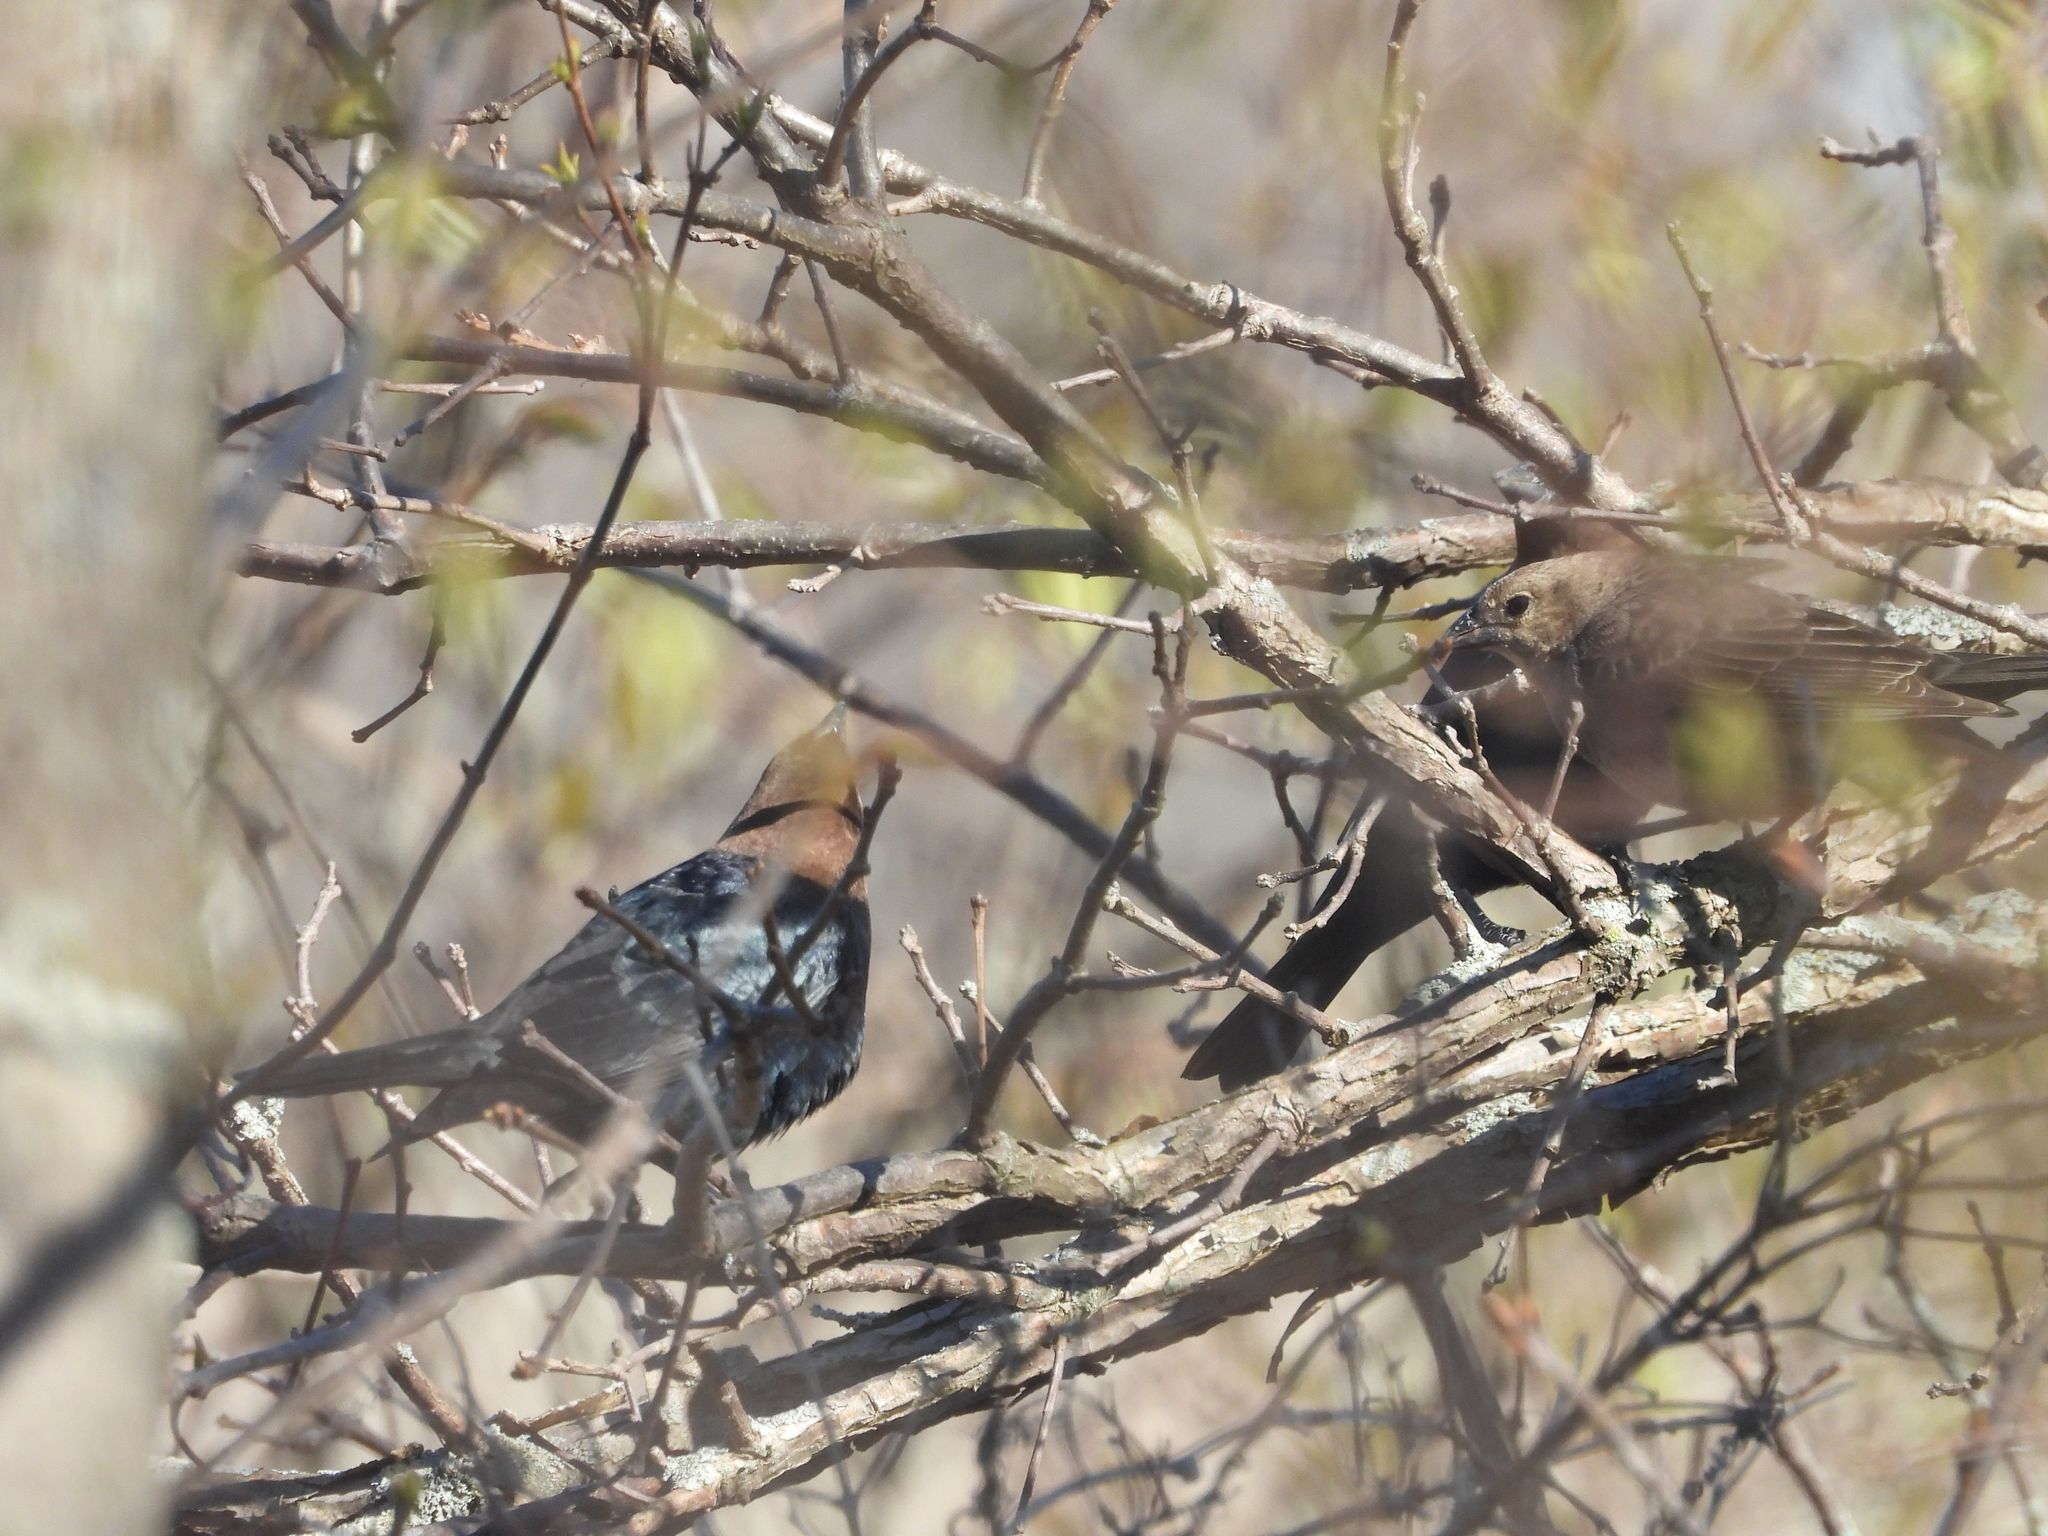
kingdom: Animalia
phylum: Chordata
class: Aves
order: Passeriformes
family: Icteridae
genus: Molothrus
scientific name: Molothrus ater
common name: Brown-headed cowbird
